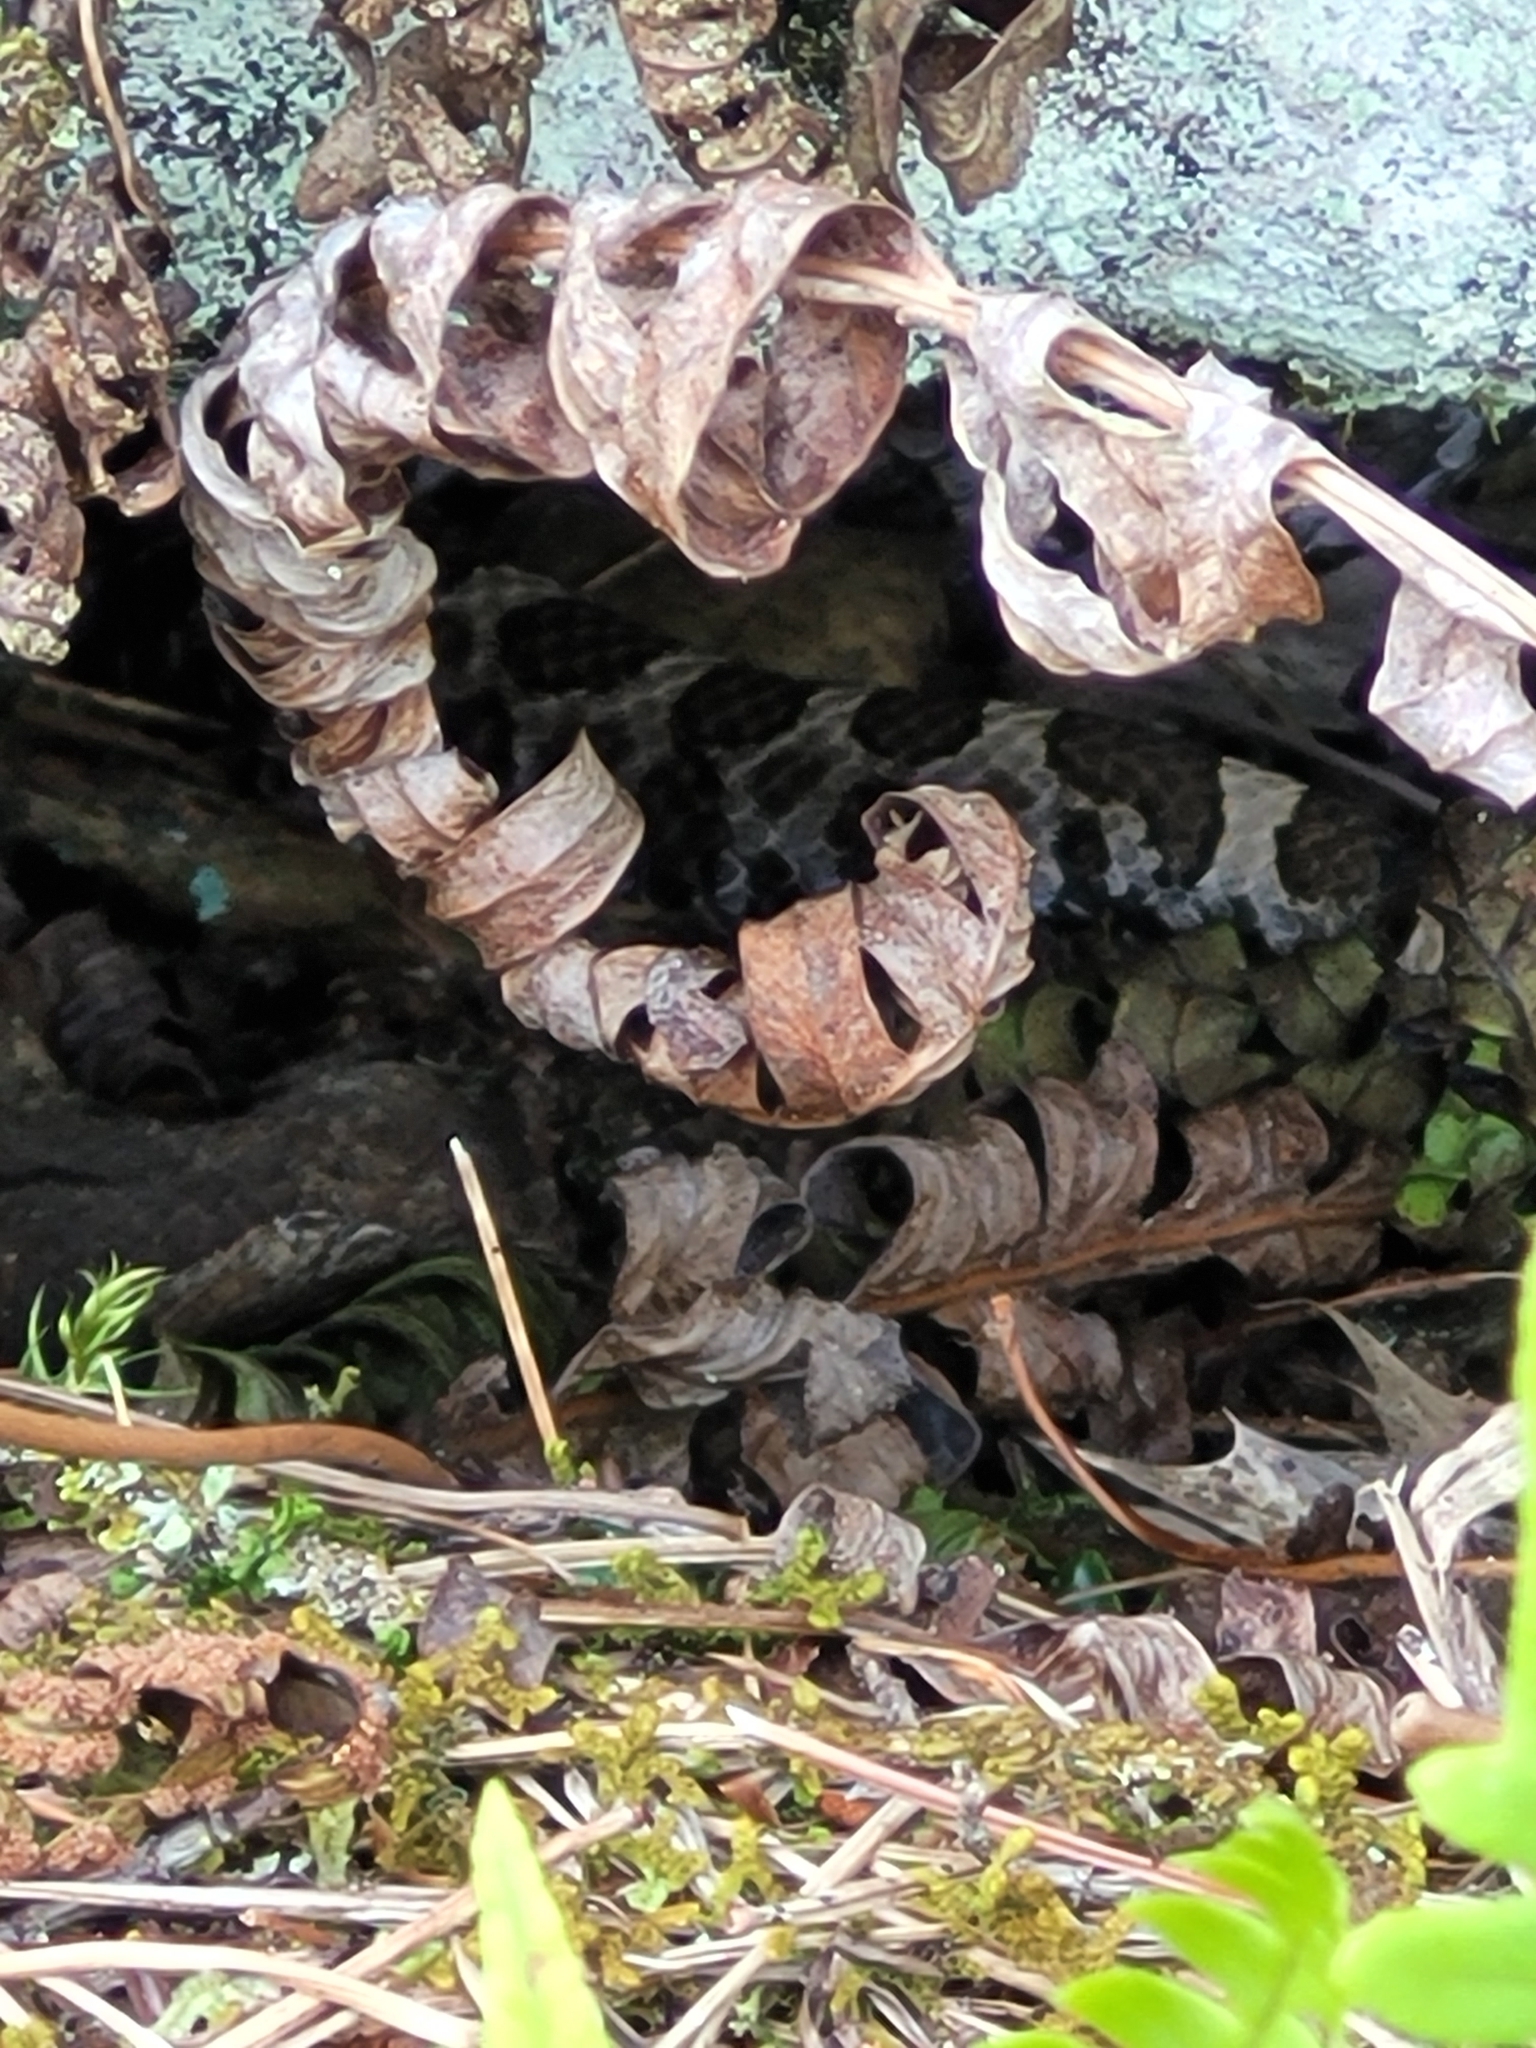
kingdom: Animalia
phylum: Chordata
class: Squamata
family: Viperidae
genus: Sistrurus
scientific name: Sistrurus catenatus
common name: Massasauga
